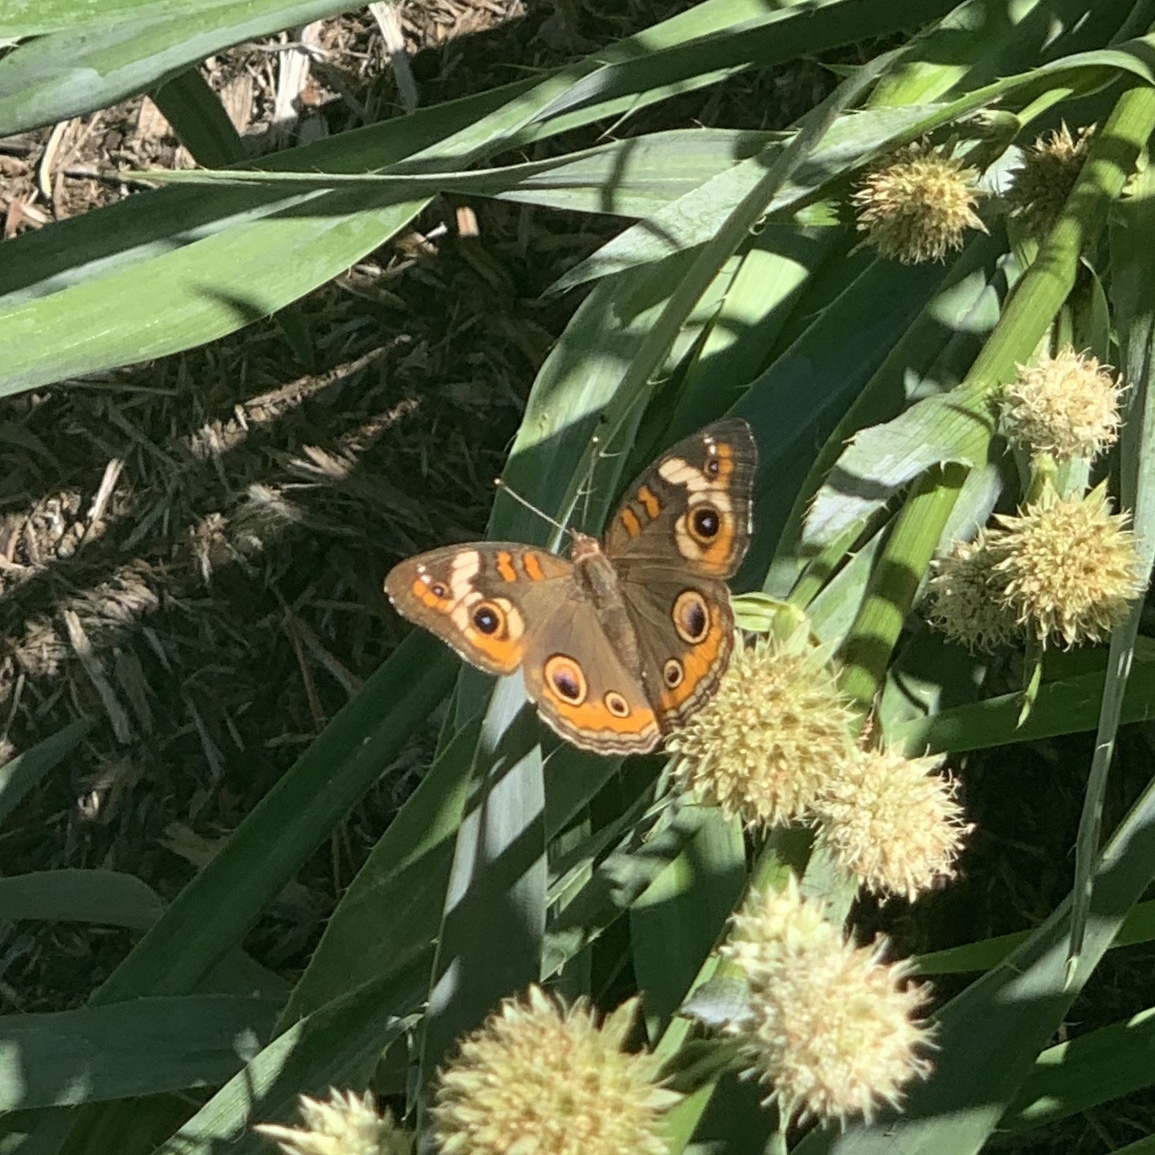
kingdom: Animalia
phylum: Arthropoda
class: Insecta
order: Lepidoptera
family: Nymphalidae
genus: Junonia
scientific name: Junonia coenia
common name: Common buckeye
